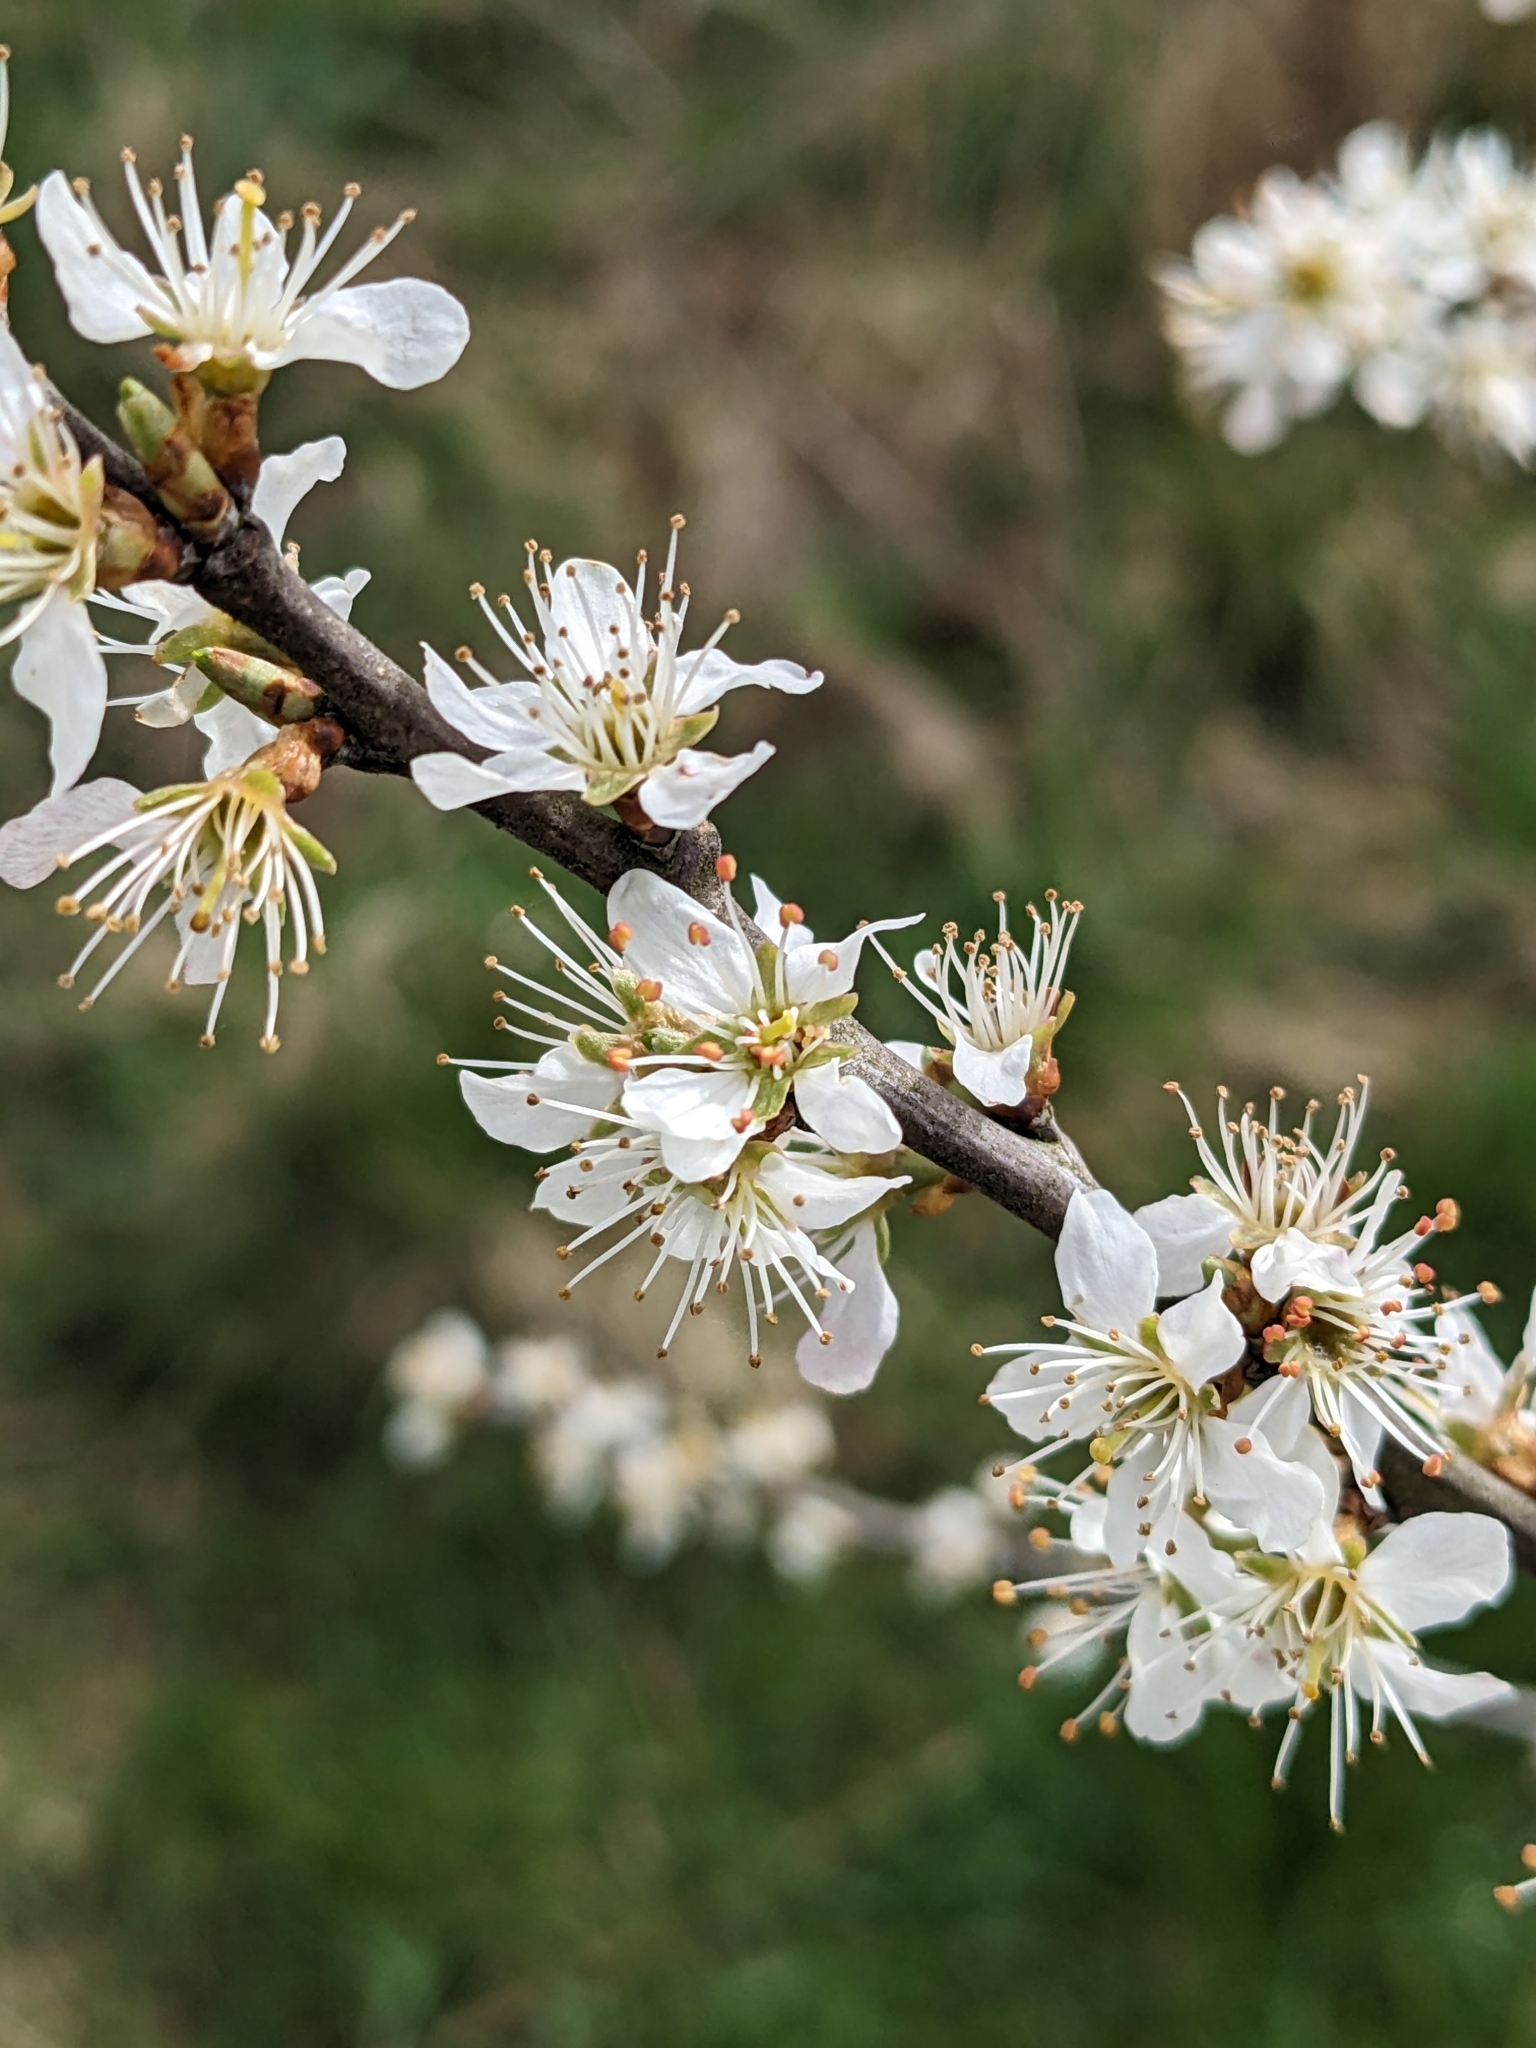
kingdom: Plantae
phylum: Tracheophyta
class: Magnoliopsida
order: Rosales
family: Rosaceae
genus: Prunus
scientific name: Prunus spinosa
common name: Blackthorn
